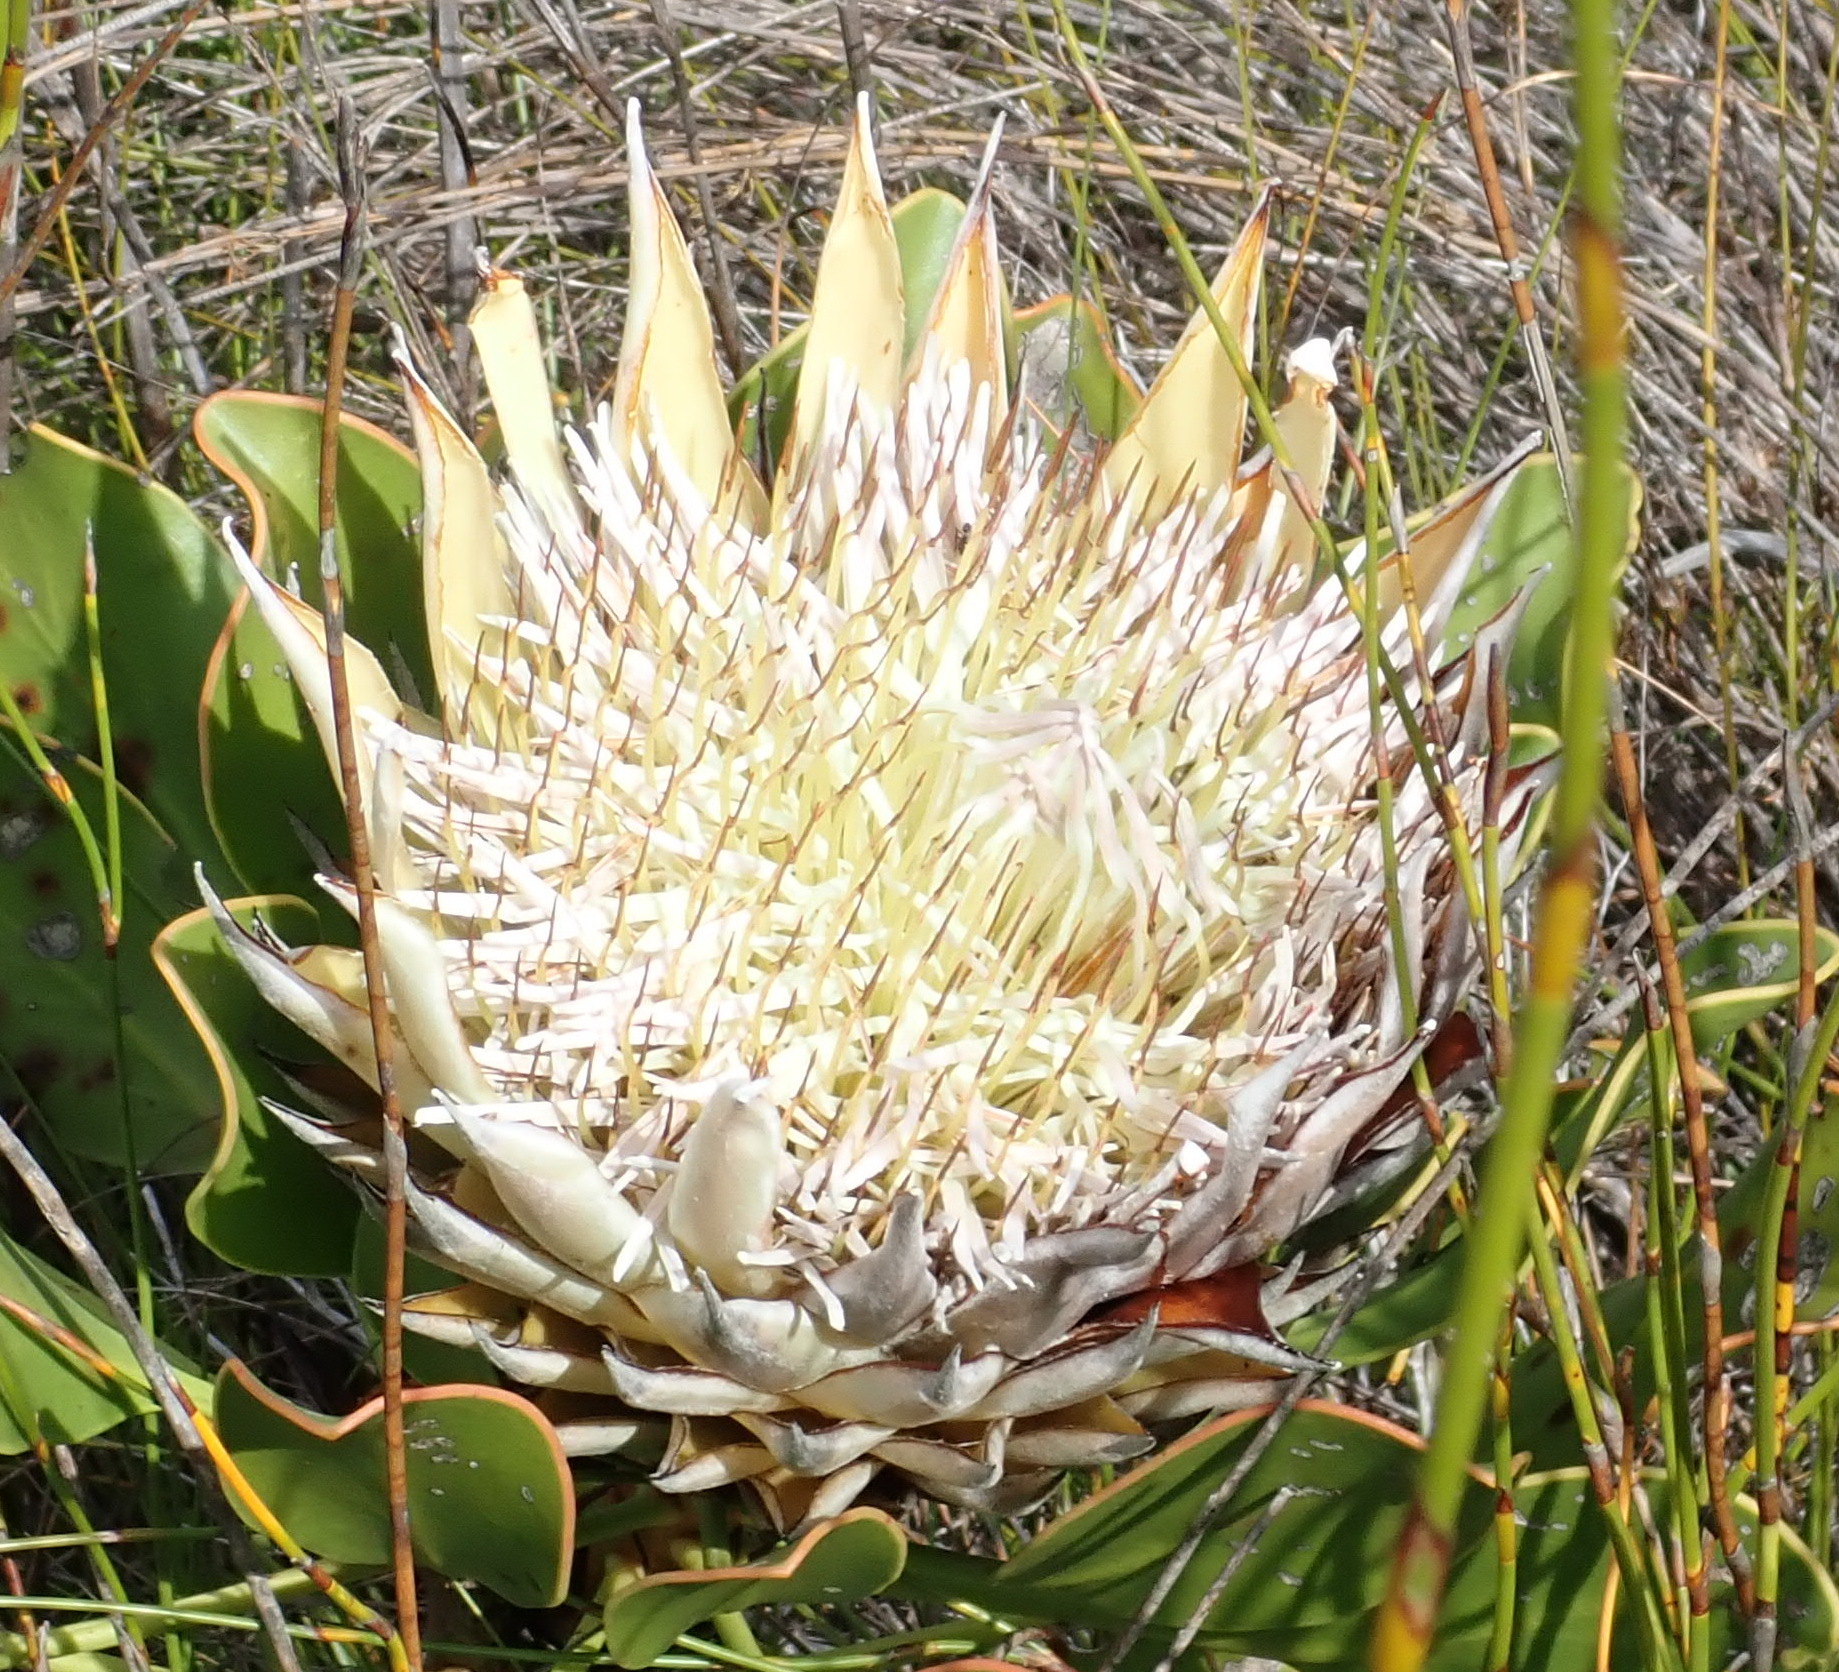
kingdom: Plantae
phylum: Tracheophyta
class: Magnoliopsida
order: Proteales
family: Proteaceae
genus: Protea
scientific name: Protea cynaroides
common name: King protea
